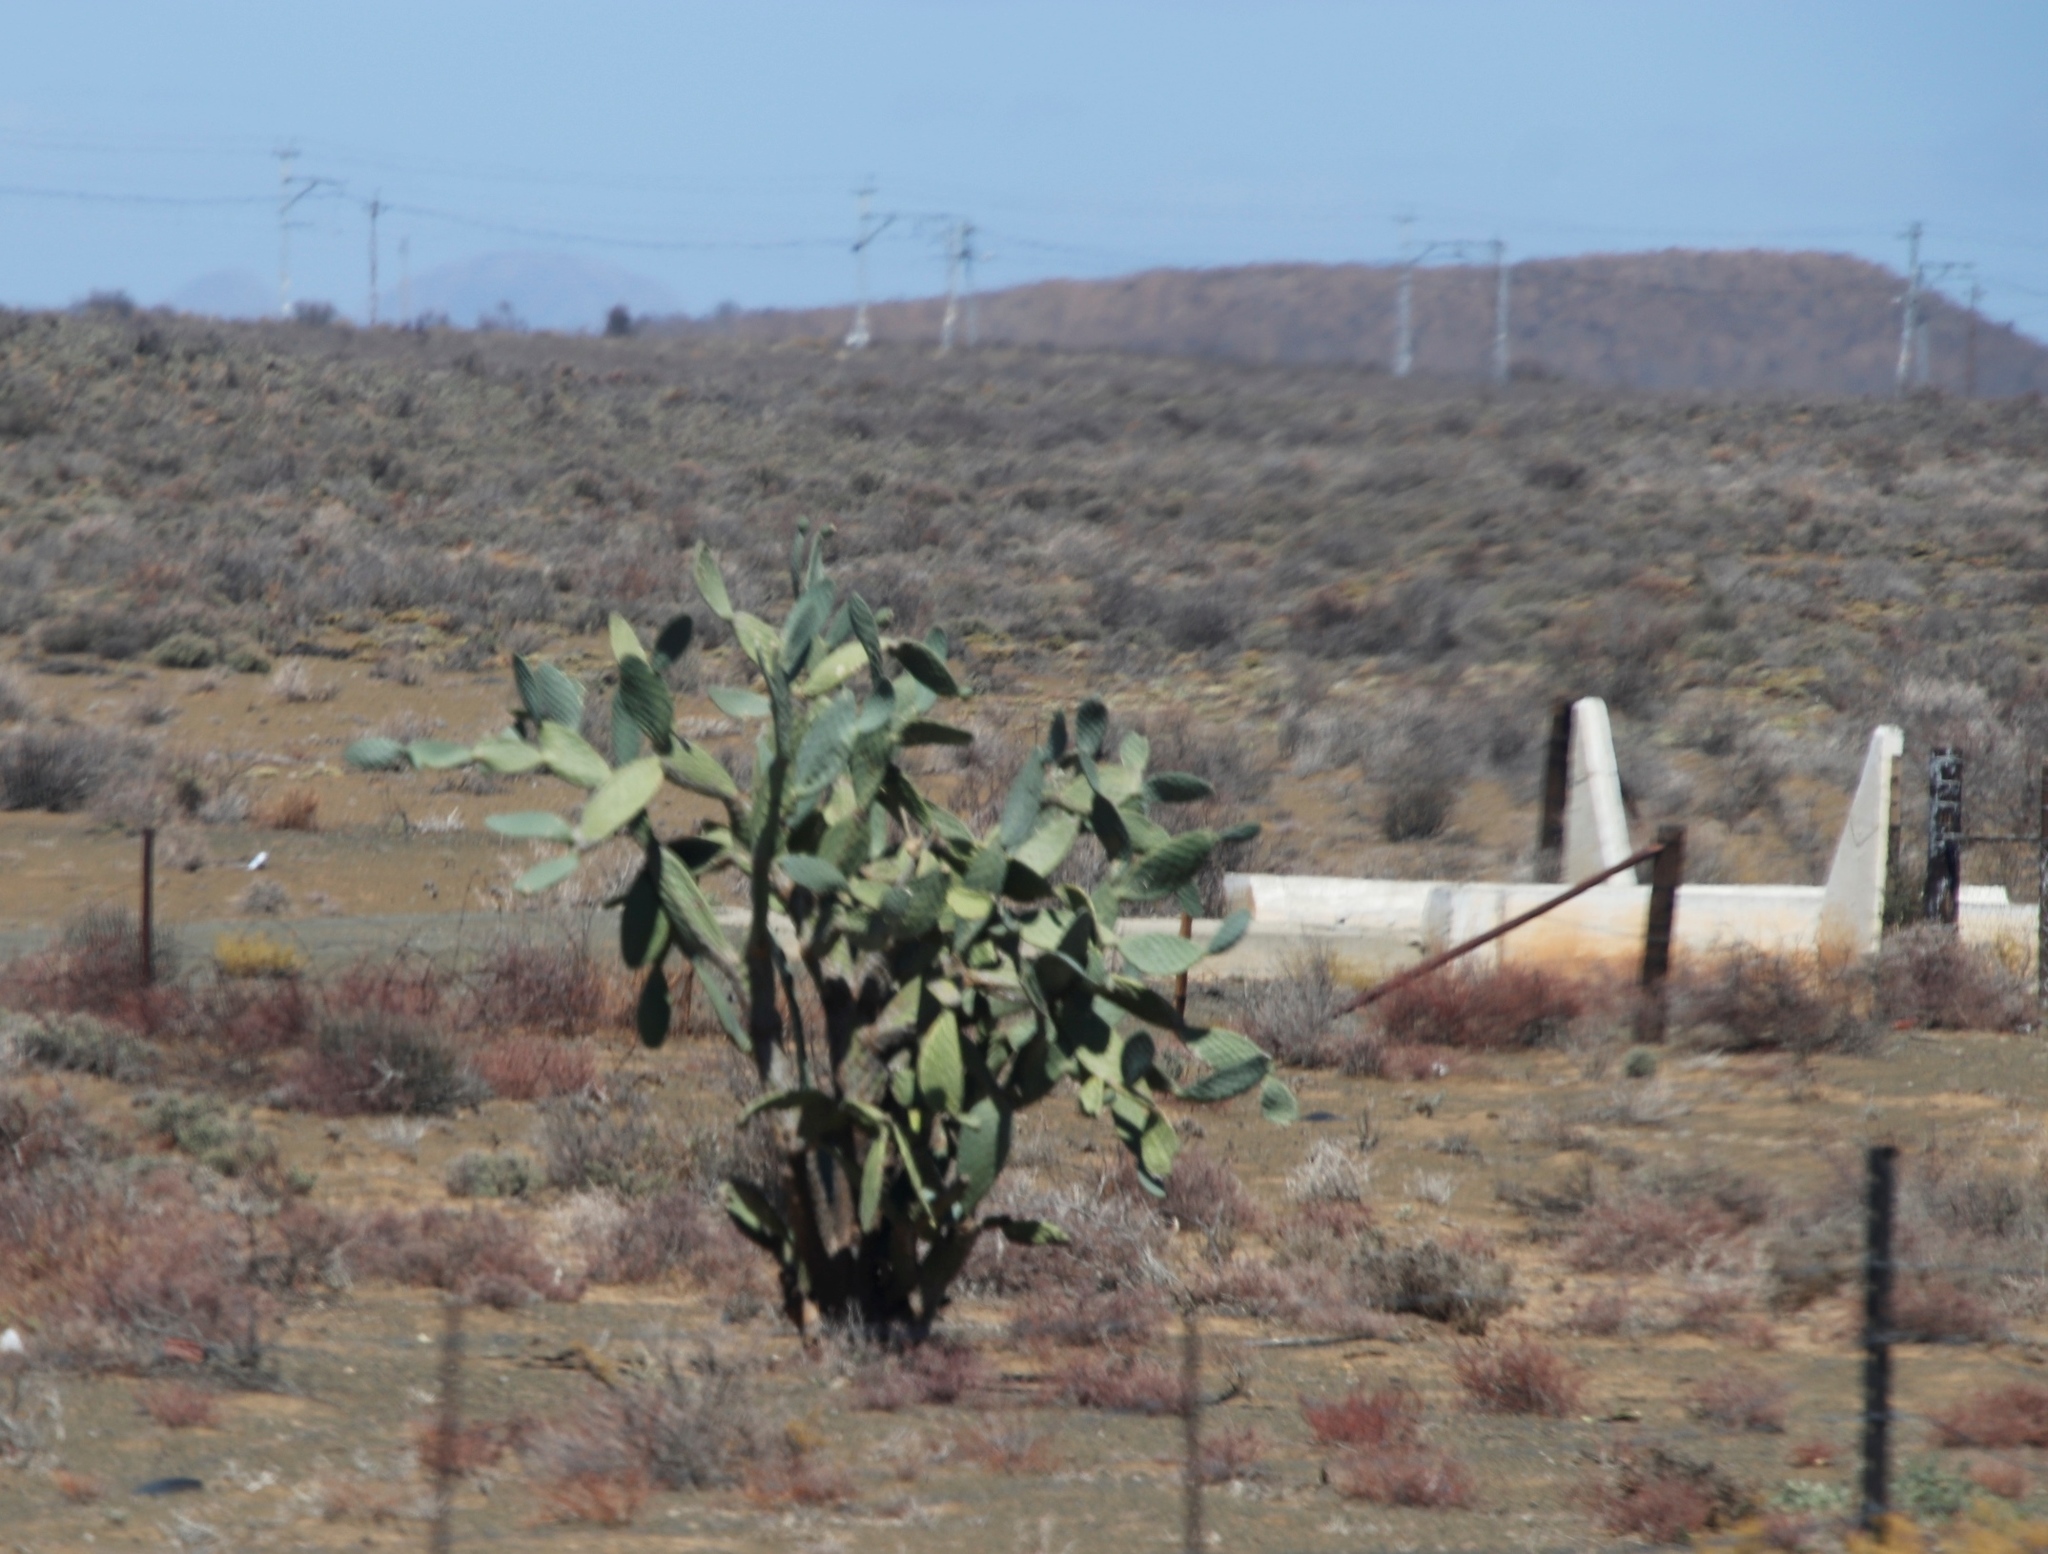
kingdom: Plantae
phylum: Tracheophyta
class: Magnoliopsida
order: Caryophyllales
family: Cactaceae
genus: Opuntia
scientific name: Opuntia ficus-indica
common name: Barbary fig
